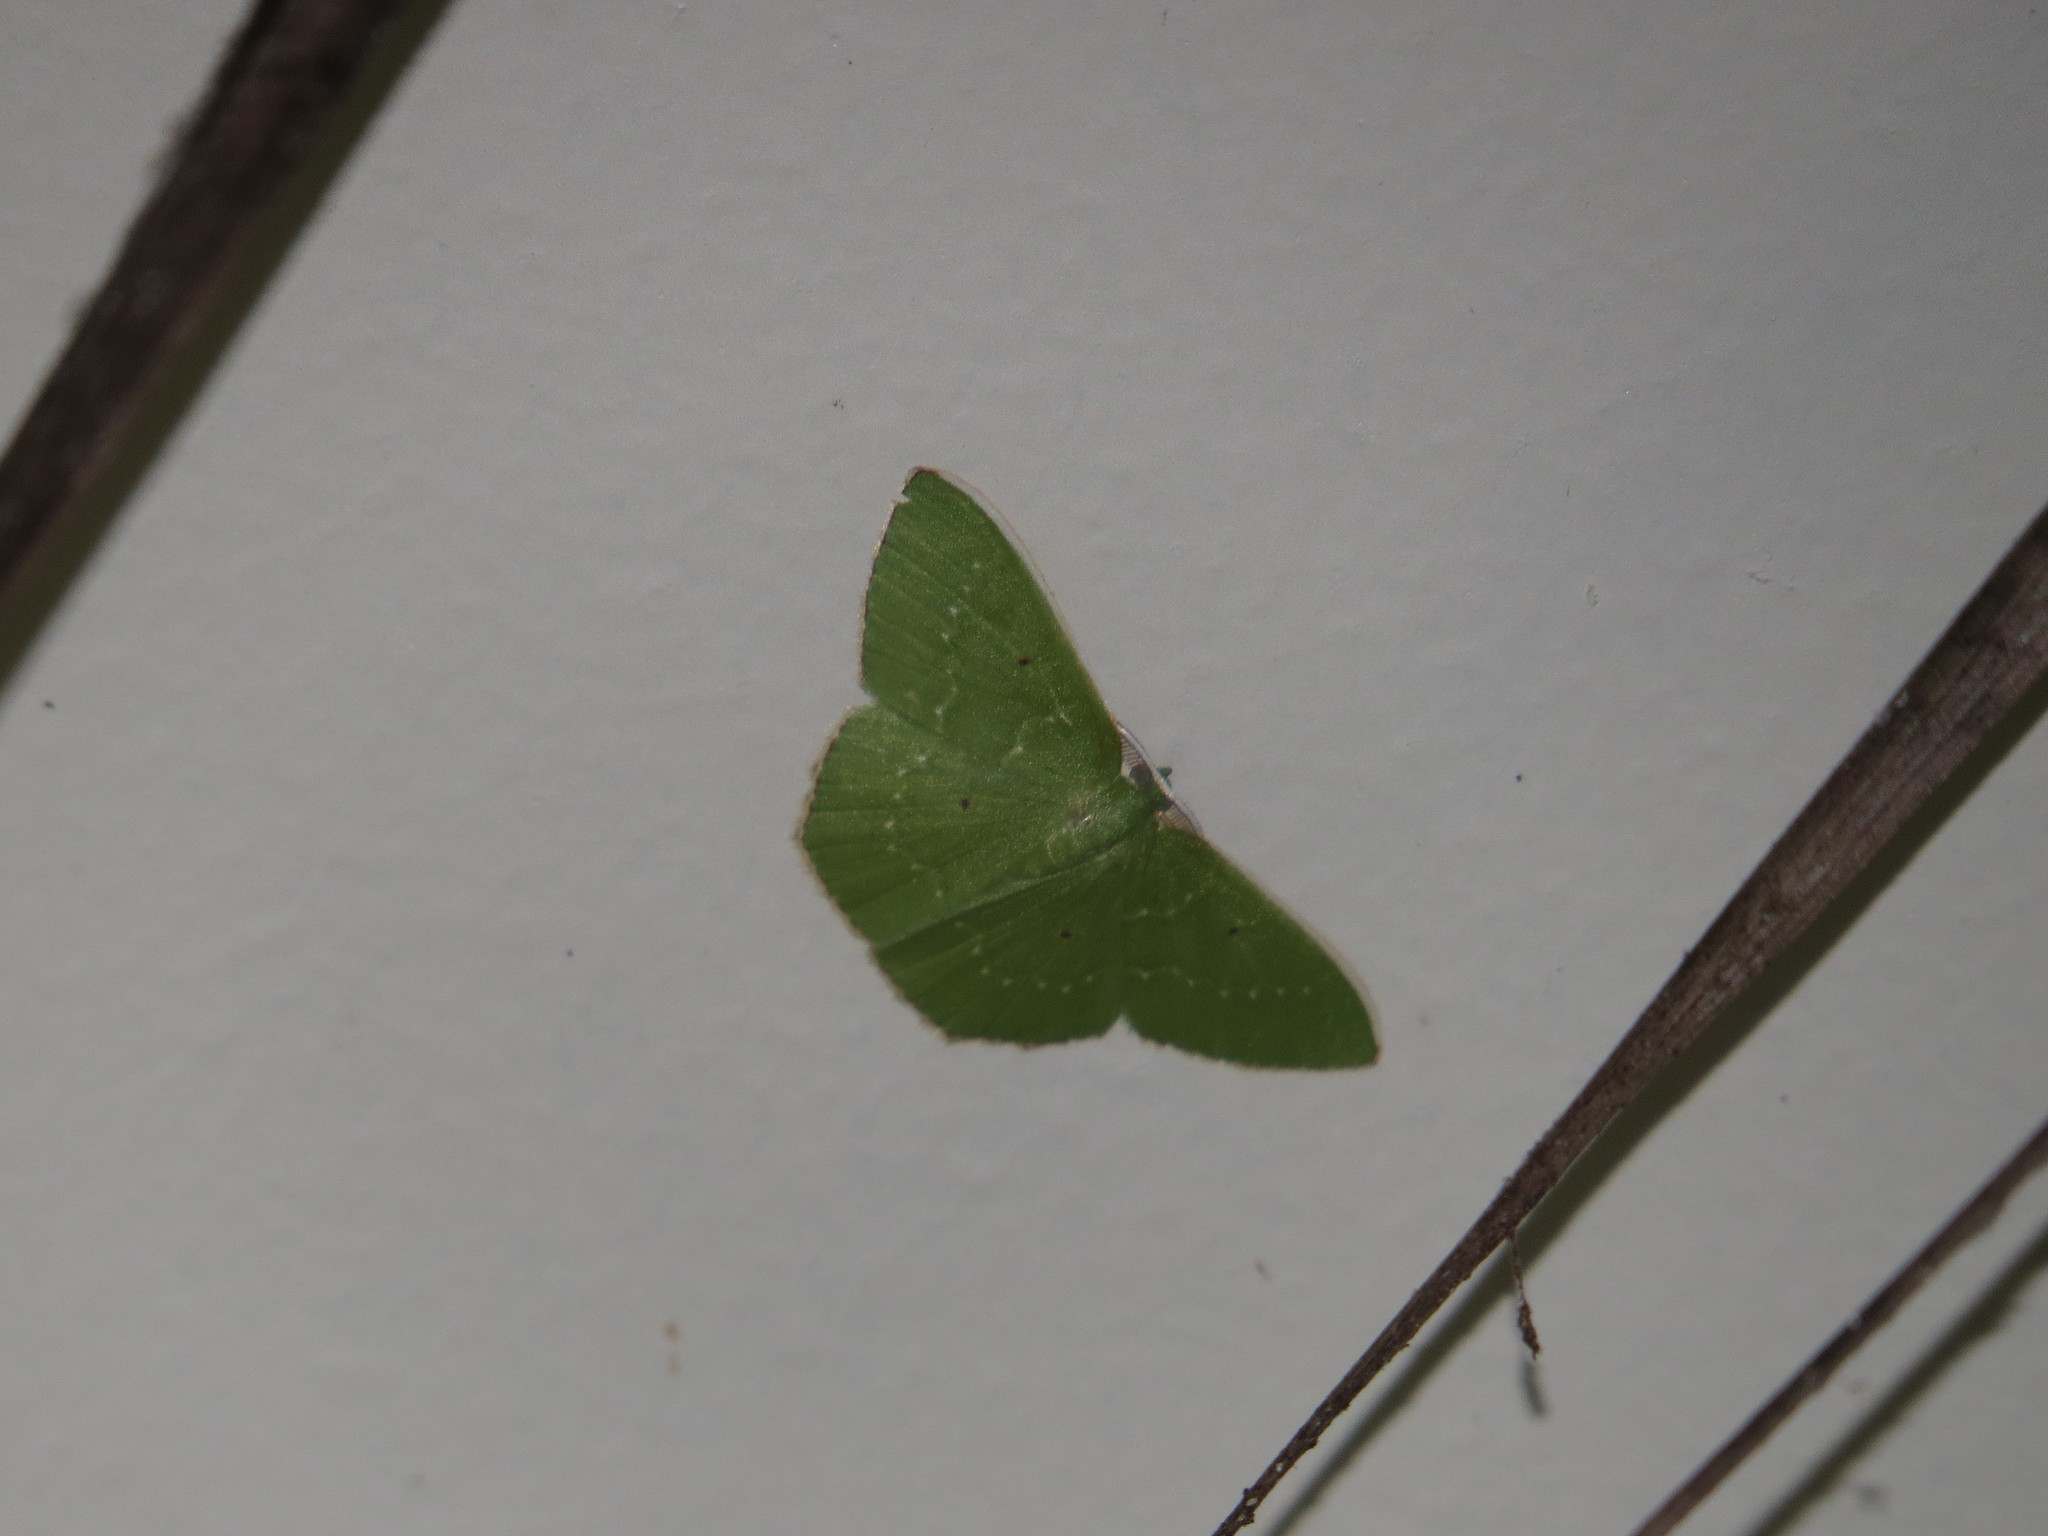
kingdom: Animalia
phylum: Arthropoda
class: Insecta
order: Lepidoptera
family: Geometridae
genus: Albinospila
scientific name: Albinospila floresaria
